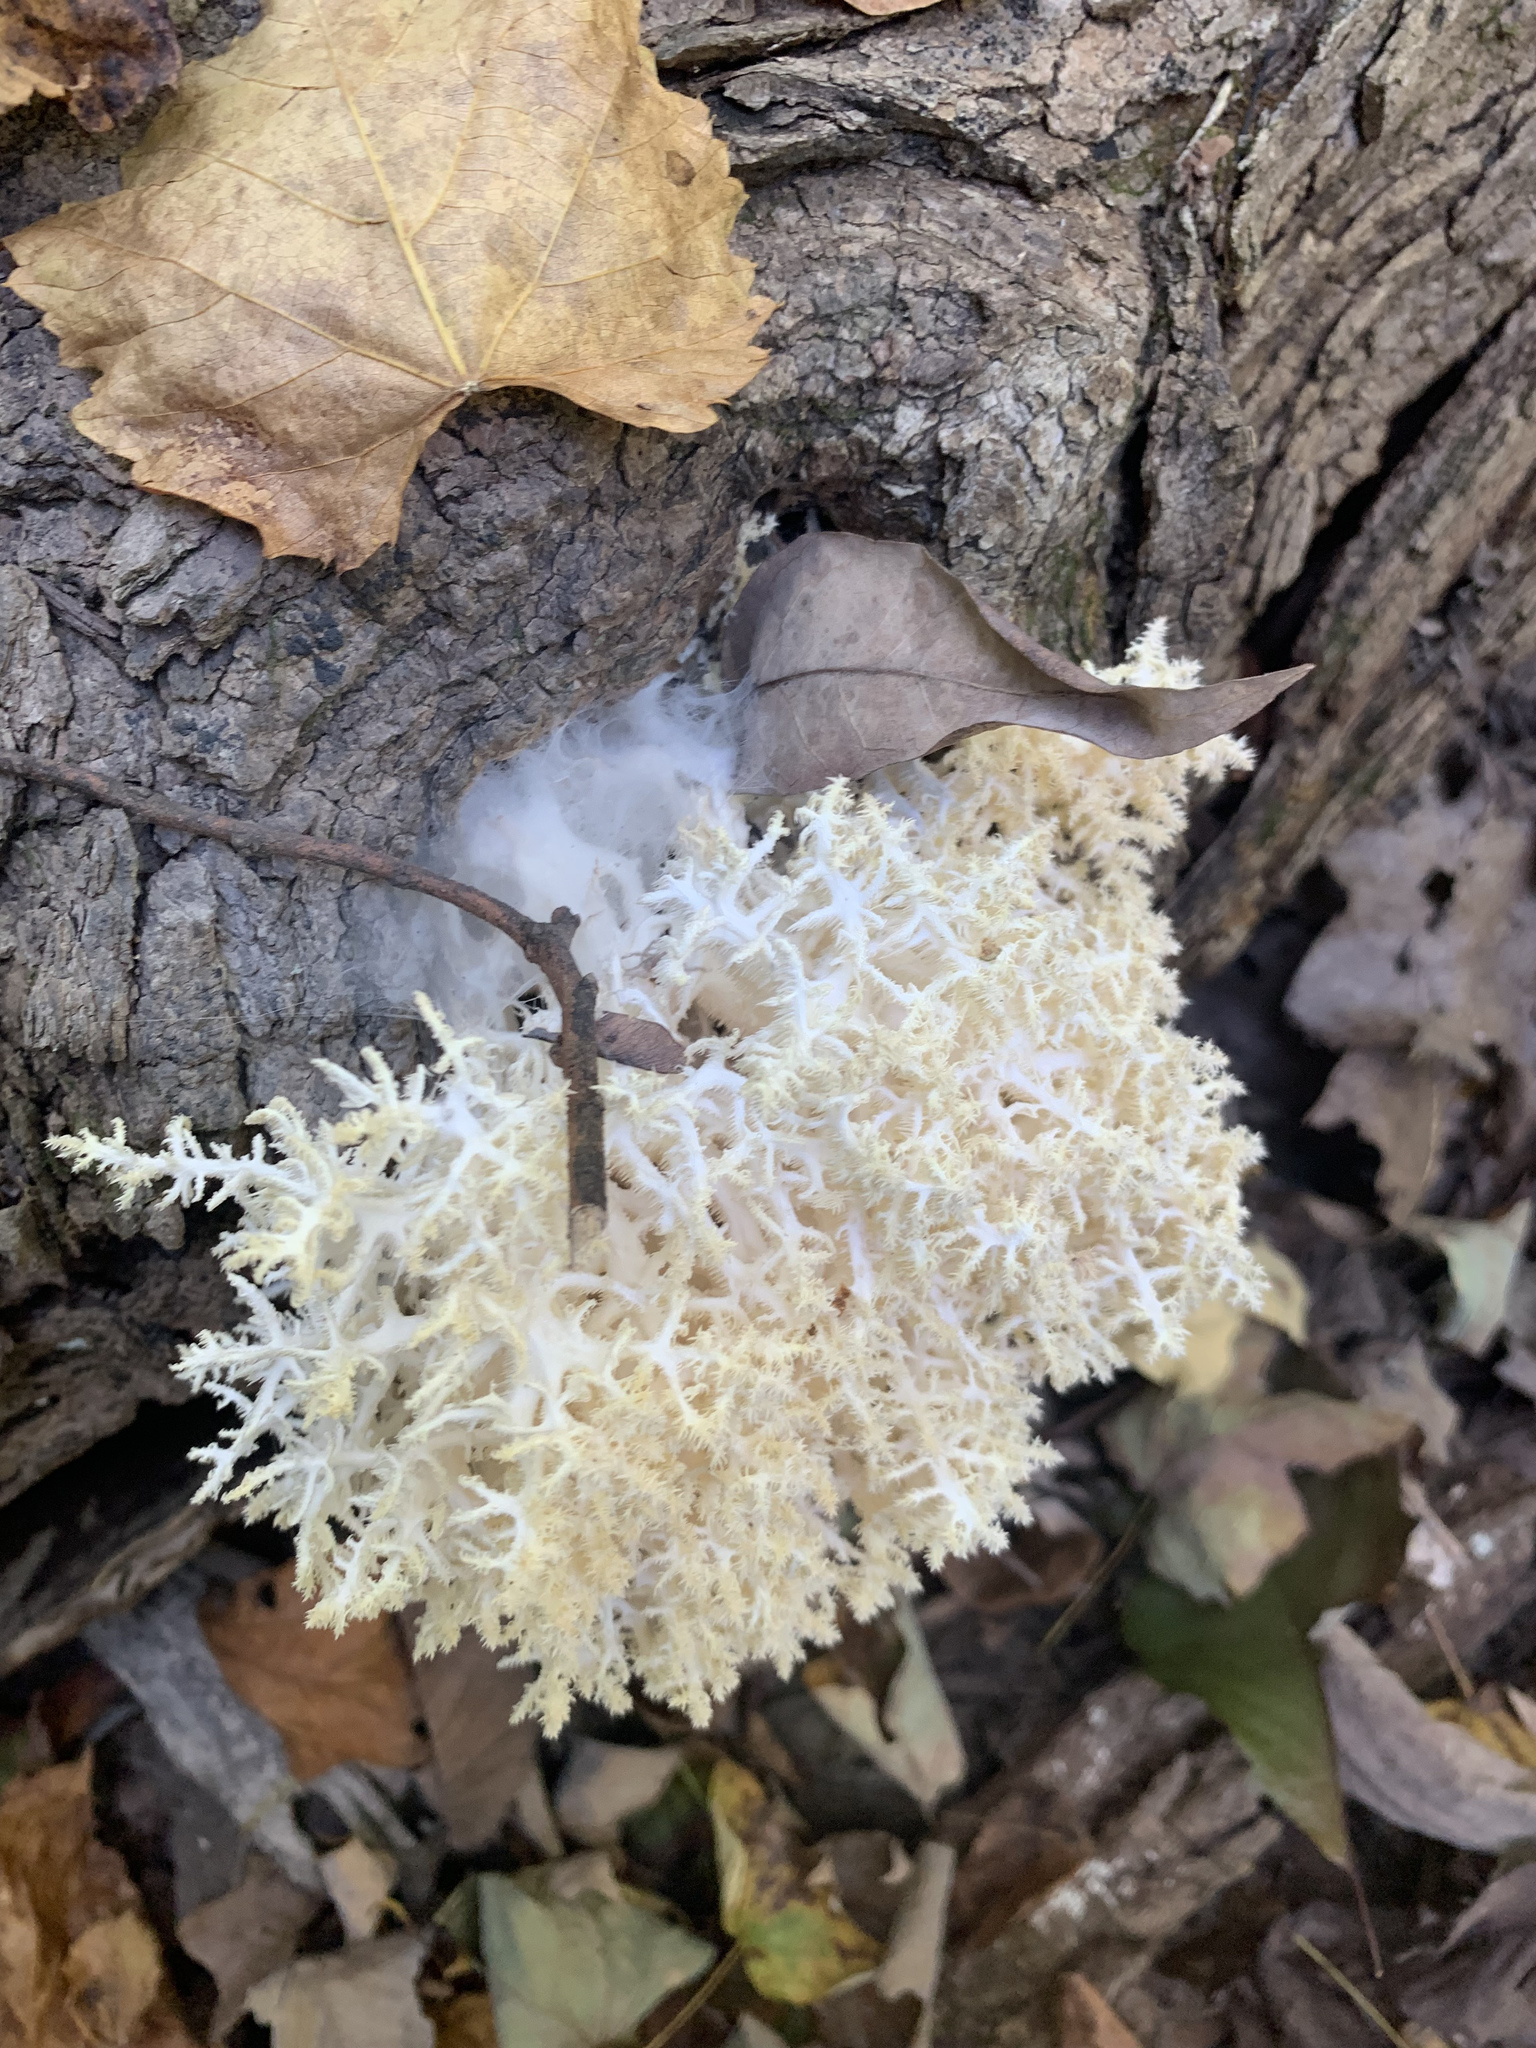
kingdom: Fungi
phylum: Basidiomycota
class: Agaricomycetes
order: Russulales
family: Hericiaceae
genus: Hericium
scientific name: Hericium coralloides
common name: Coral tooth
